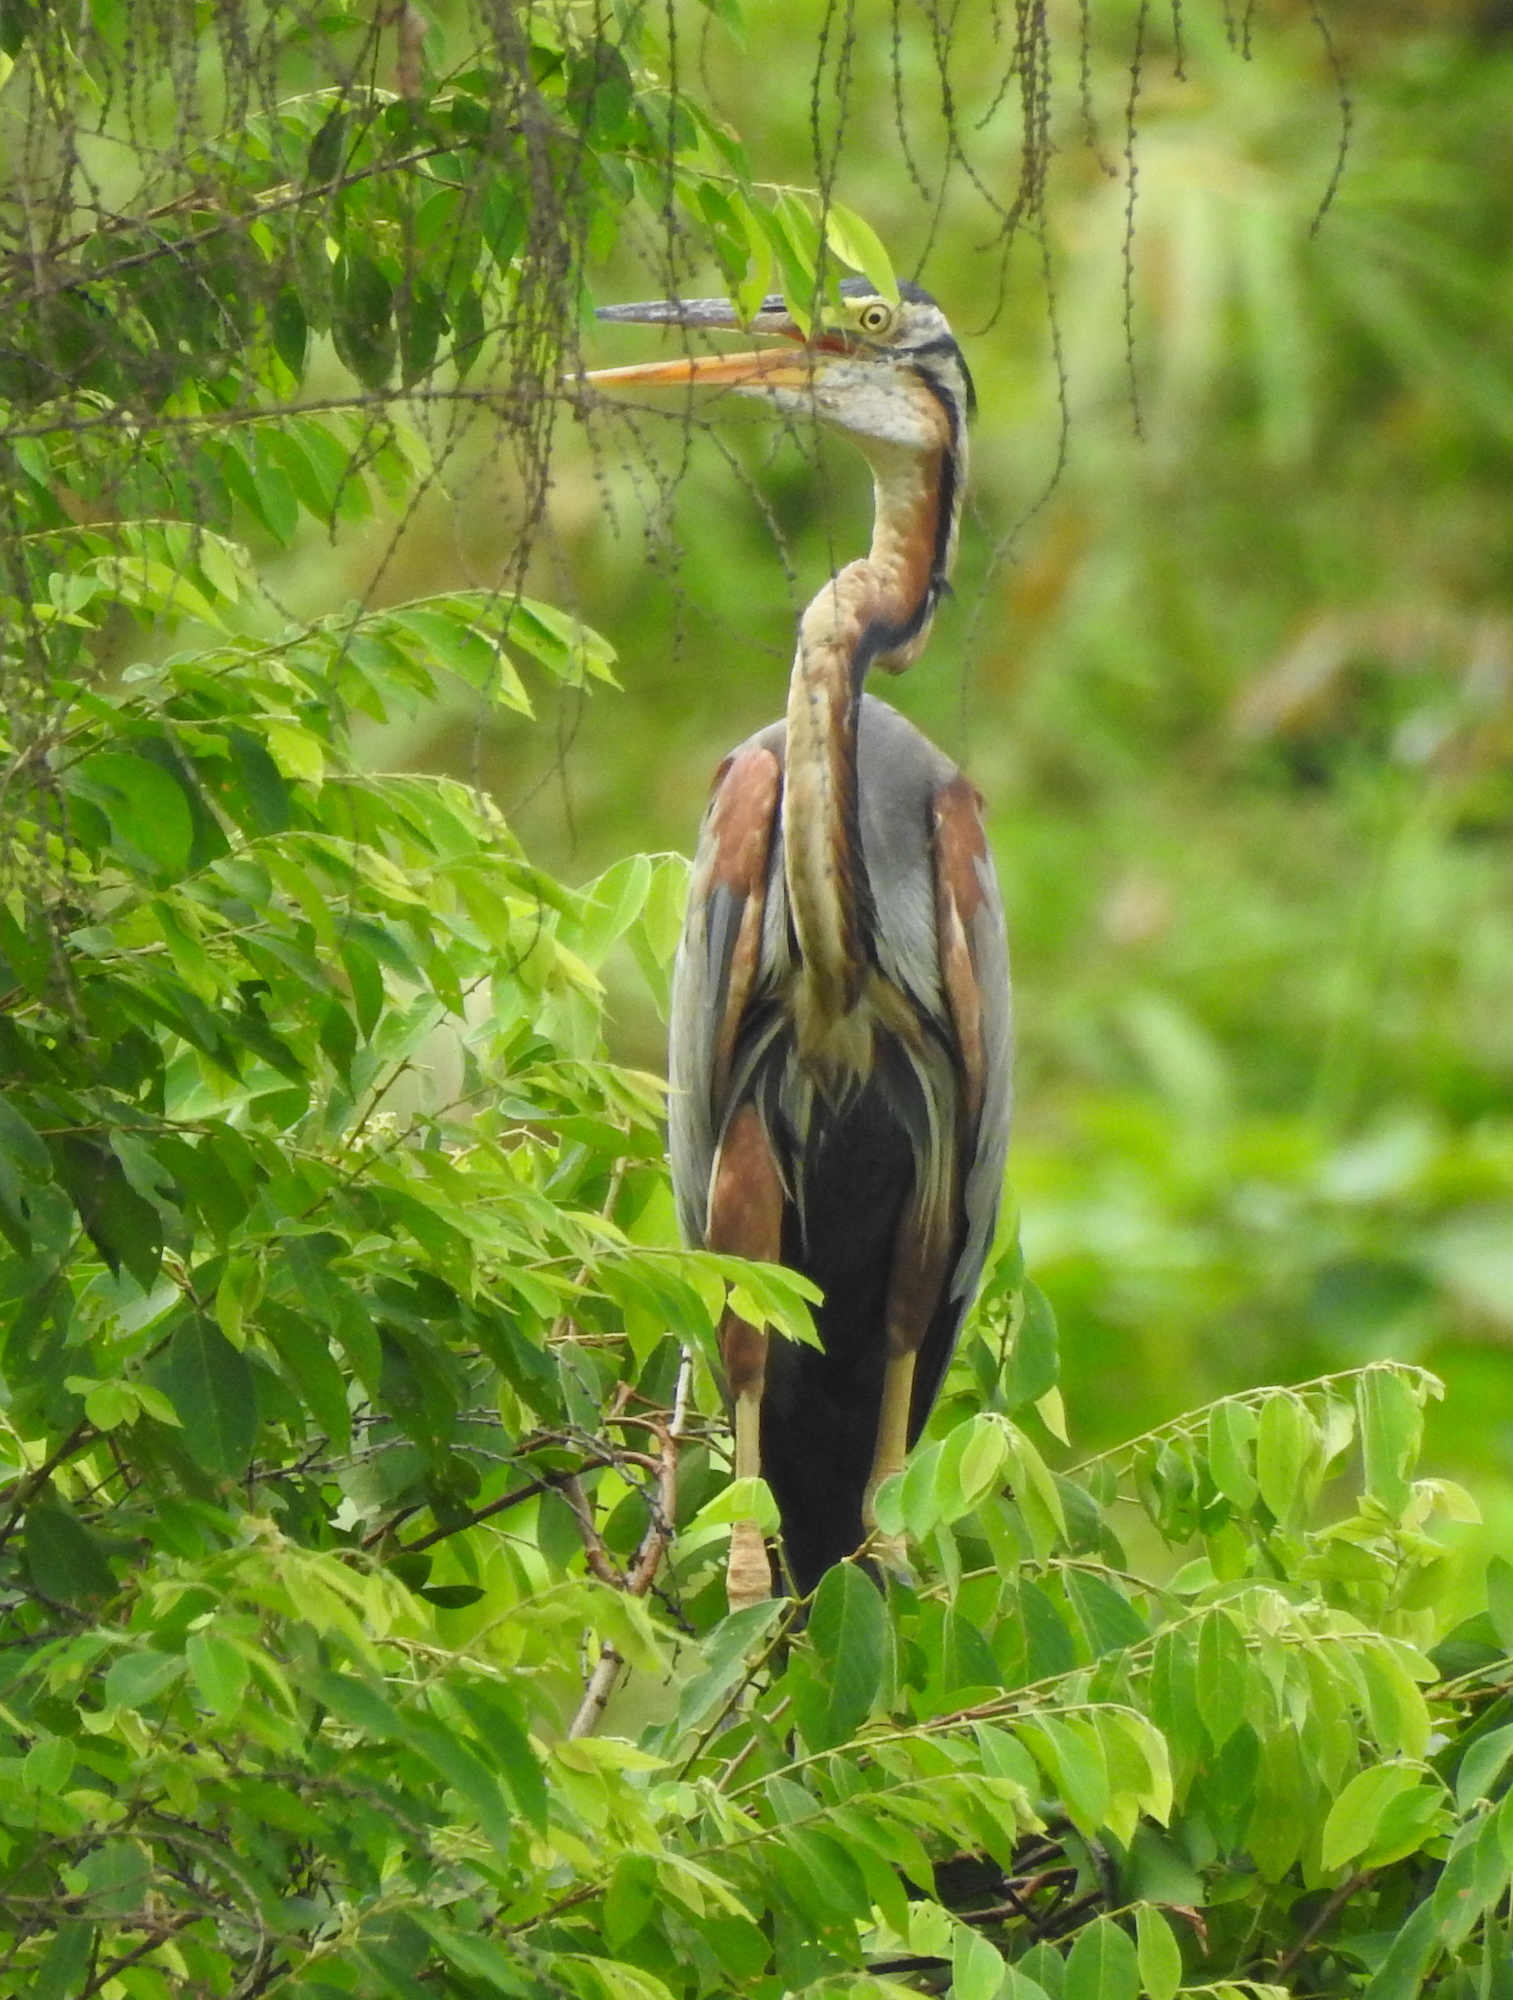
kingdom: Animalia
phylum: Chordata
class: Aves
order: Pelecaniformes
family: Ardeidae
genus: Ardea
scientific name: Ardea purpurea
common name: Purple heron
